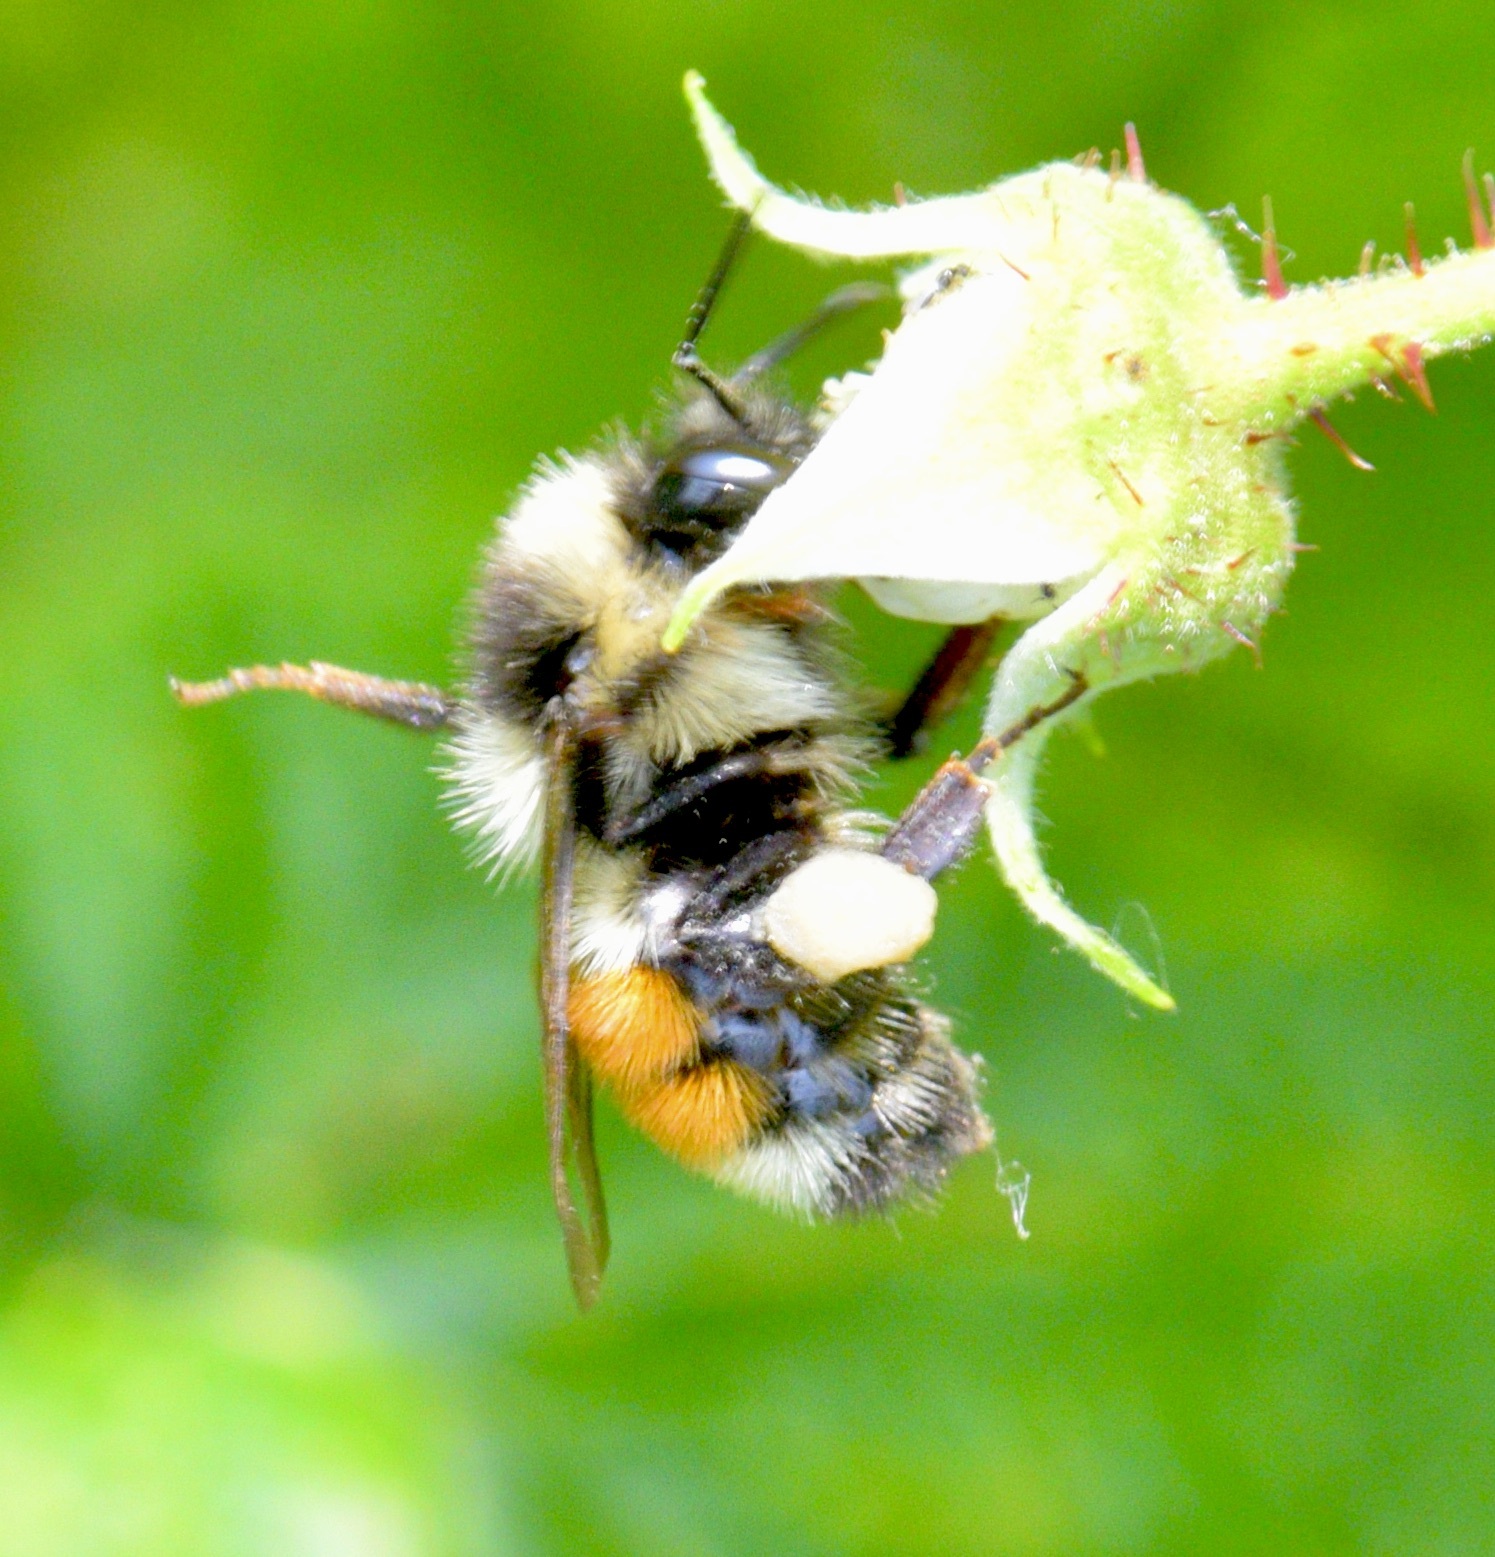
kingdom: Animalia
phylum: Arthropoda
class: Insecta
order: Hymenoptera
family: Apidae
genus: Bombus
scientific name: Bombus ternarius
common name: Tri-colored bumble bee
